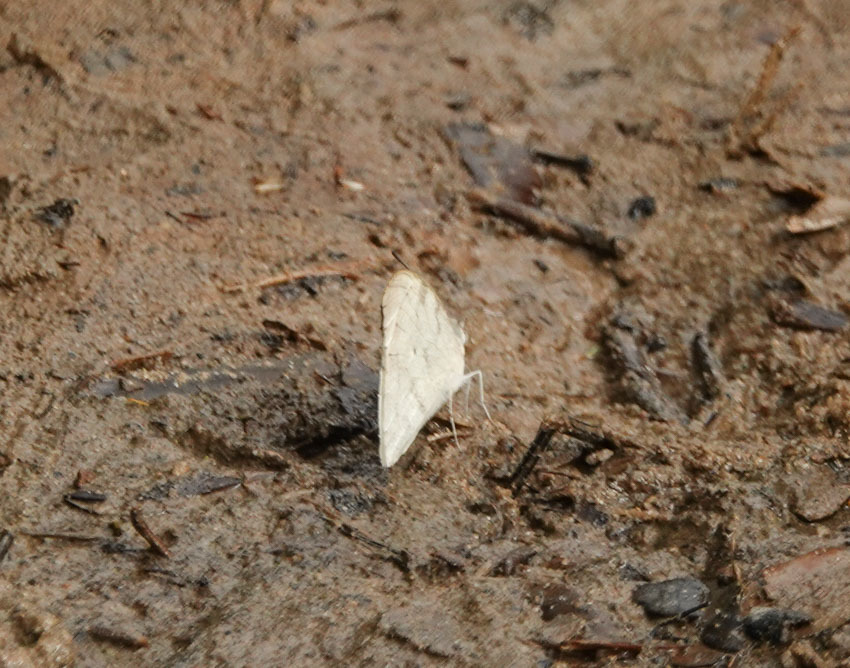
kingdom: Animalia
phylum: Arthropoda
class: Insecta
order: Lepidoptera
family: Pieridae
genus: Leptosia
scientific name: Leptosia nina
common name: Psyche
